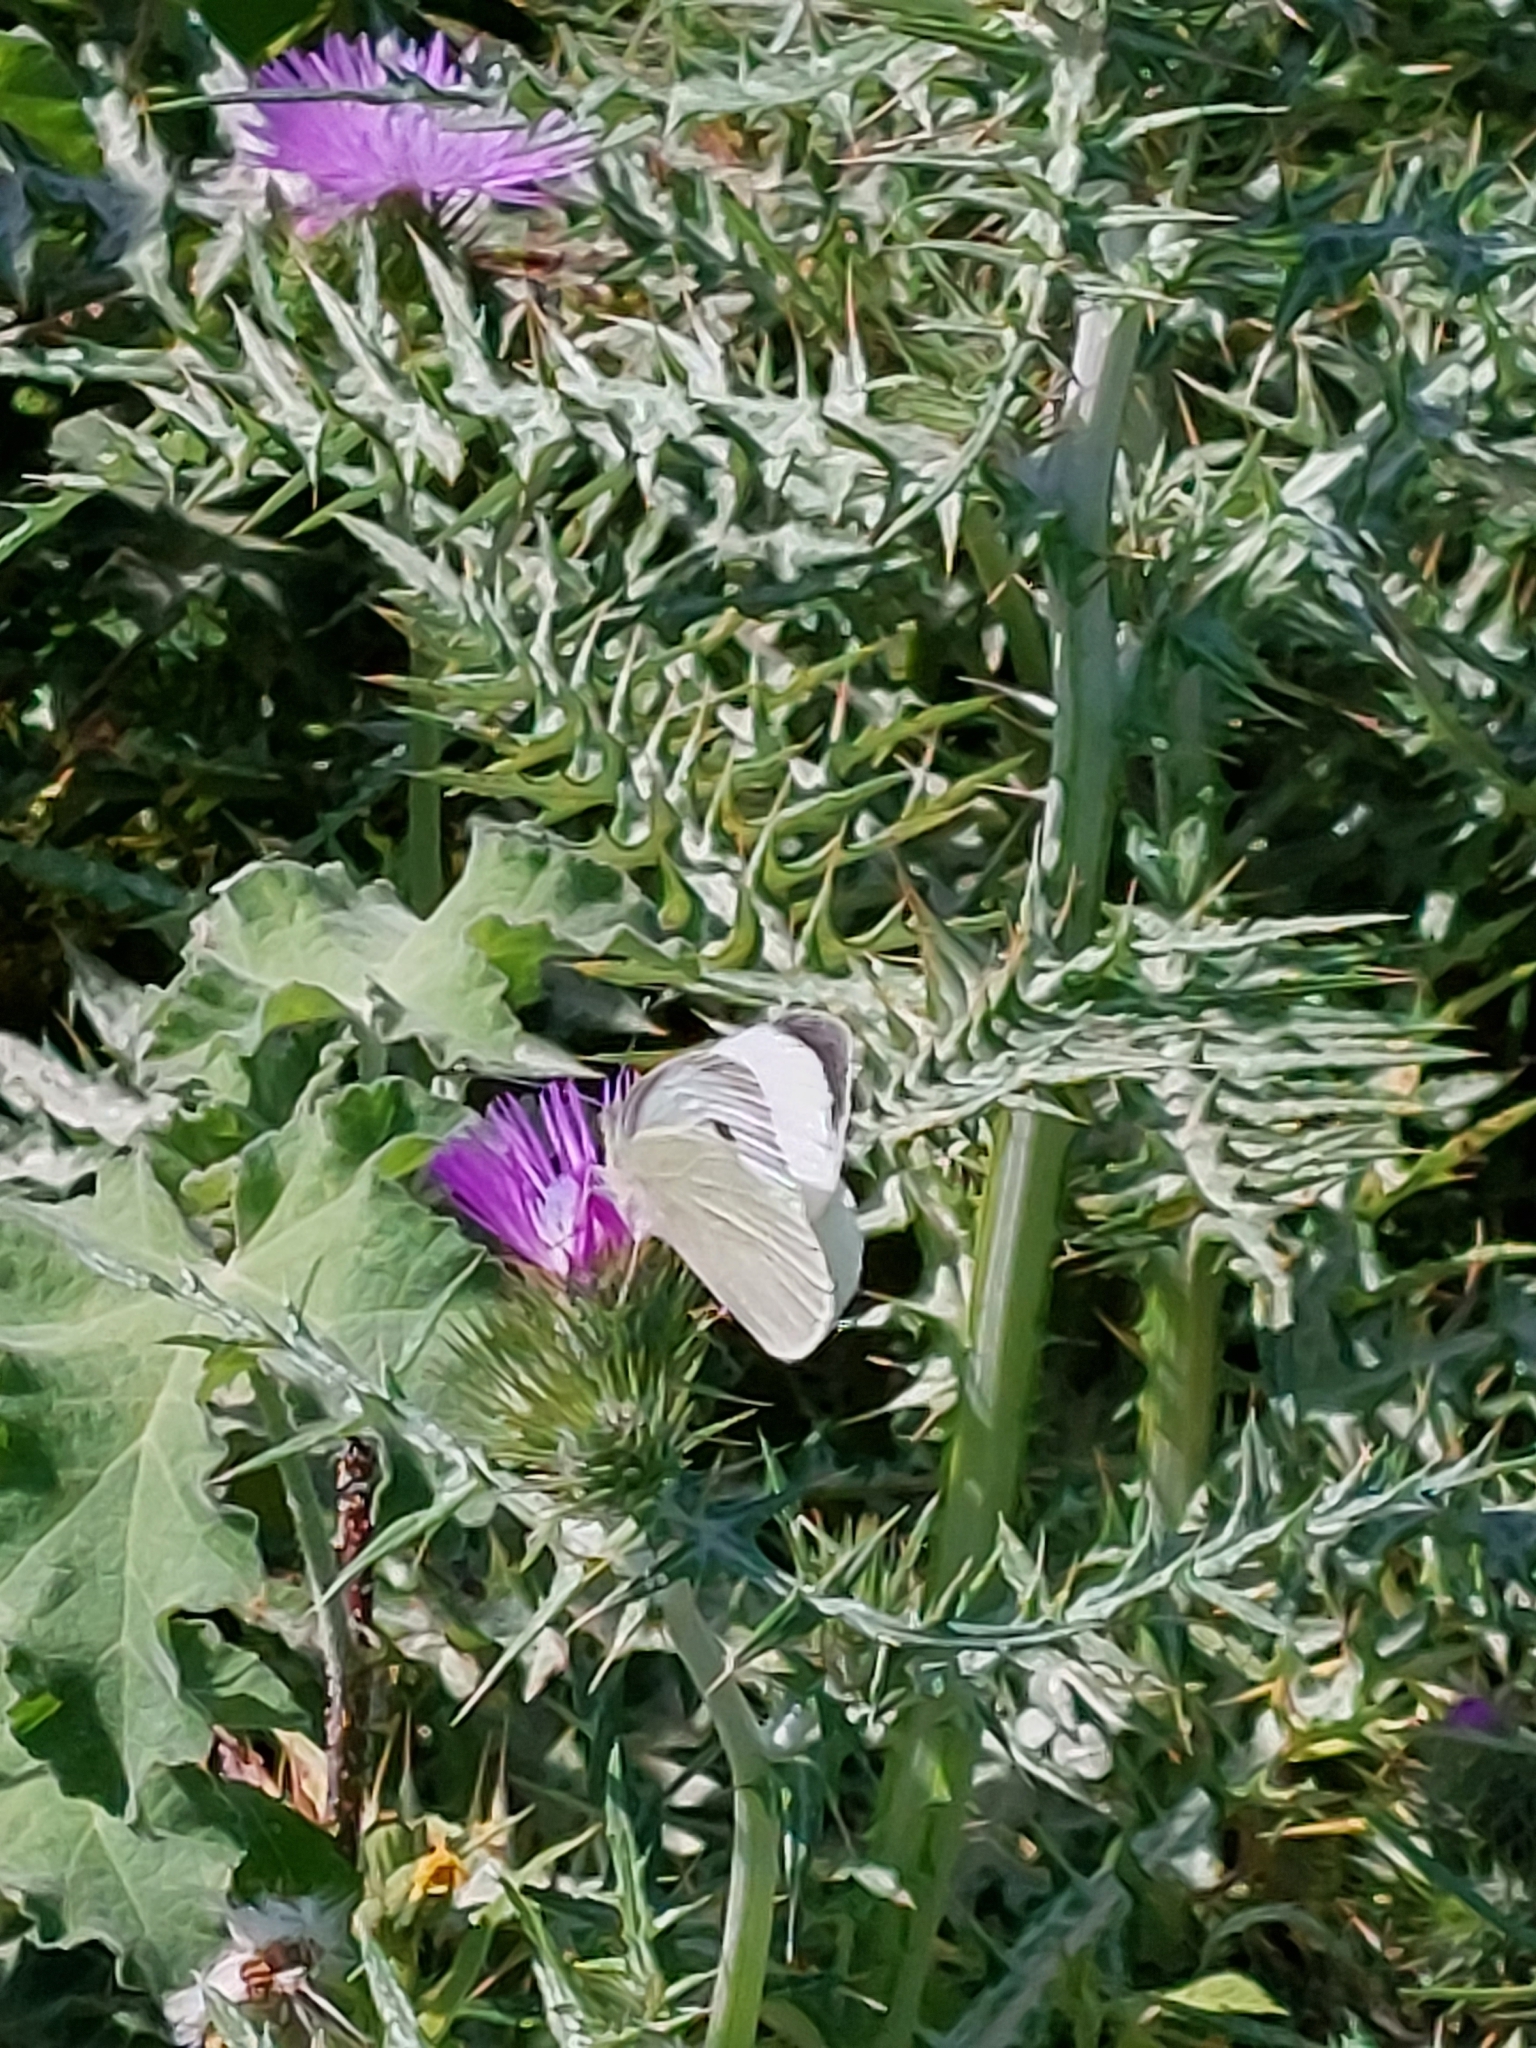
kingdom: Animalia
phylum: Arthropoda
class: Insecta
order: Lepidoptera
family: Pieridae
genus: Pieris
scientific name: Pieris brassicae
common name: Large white
